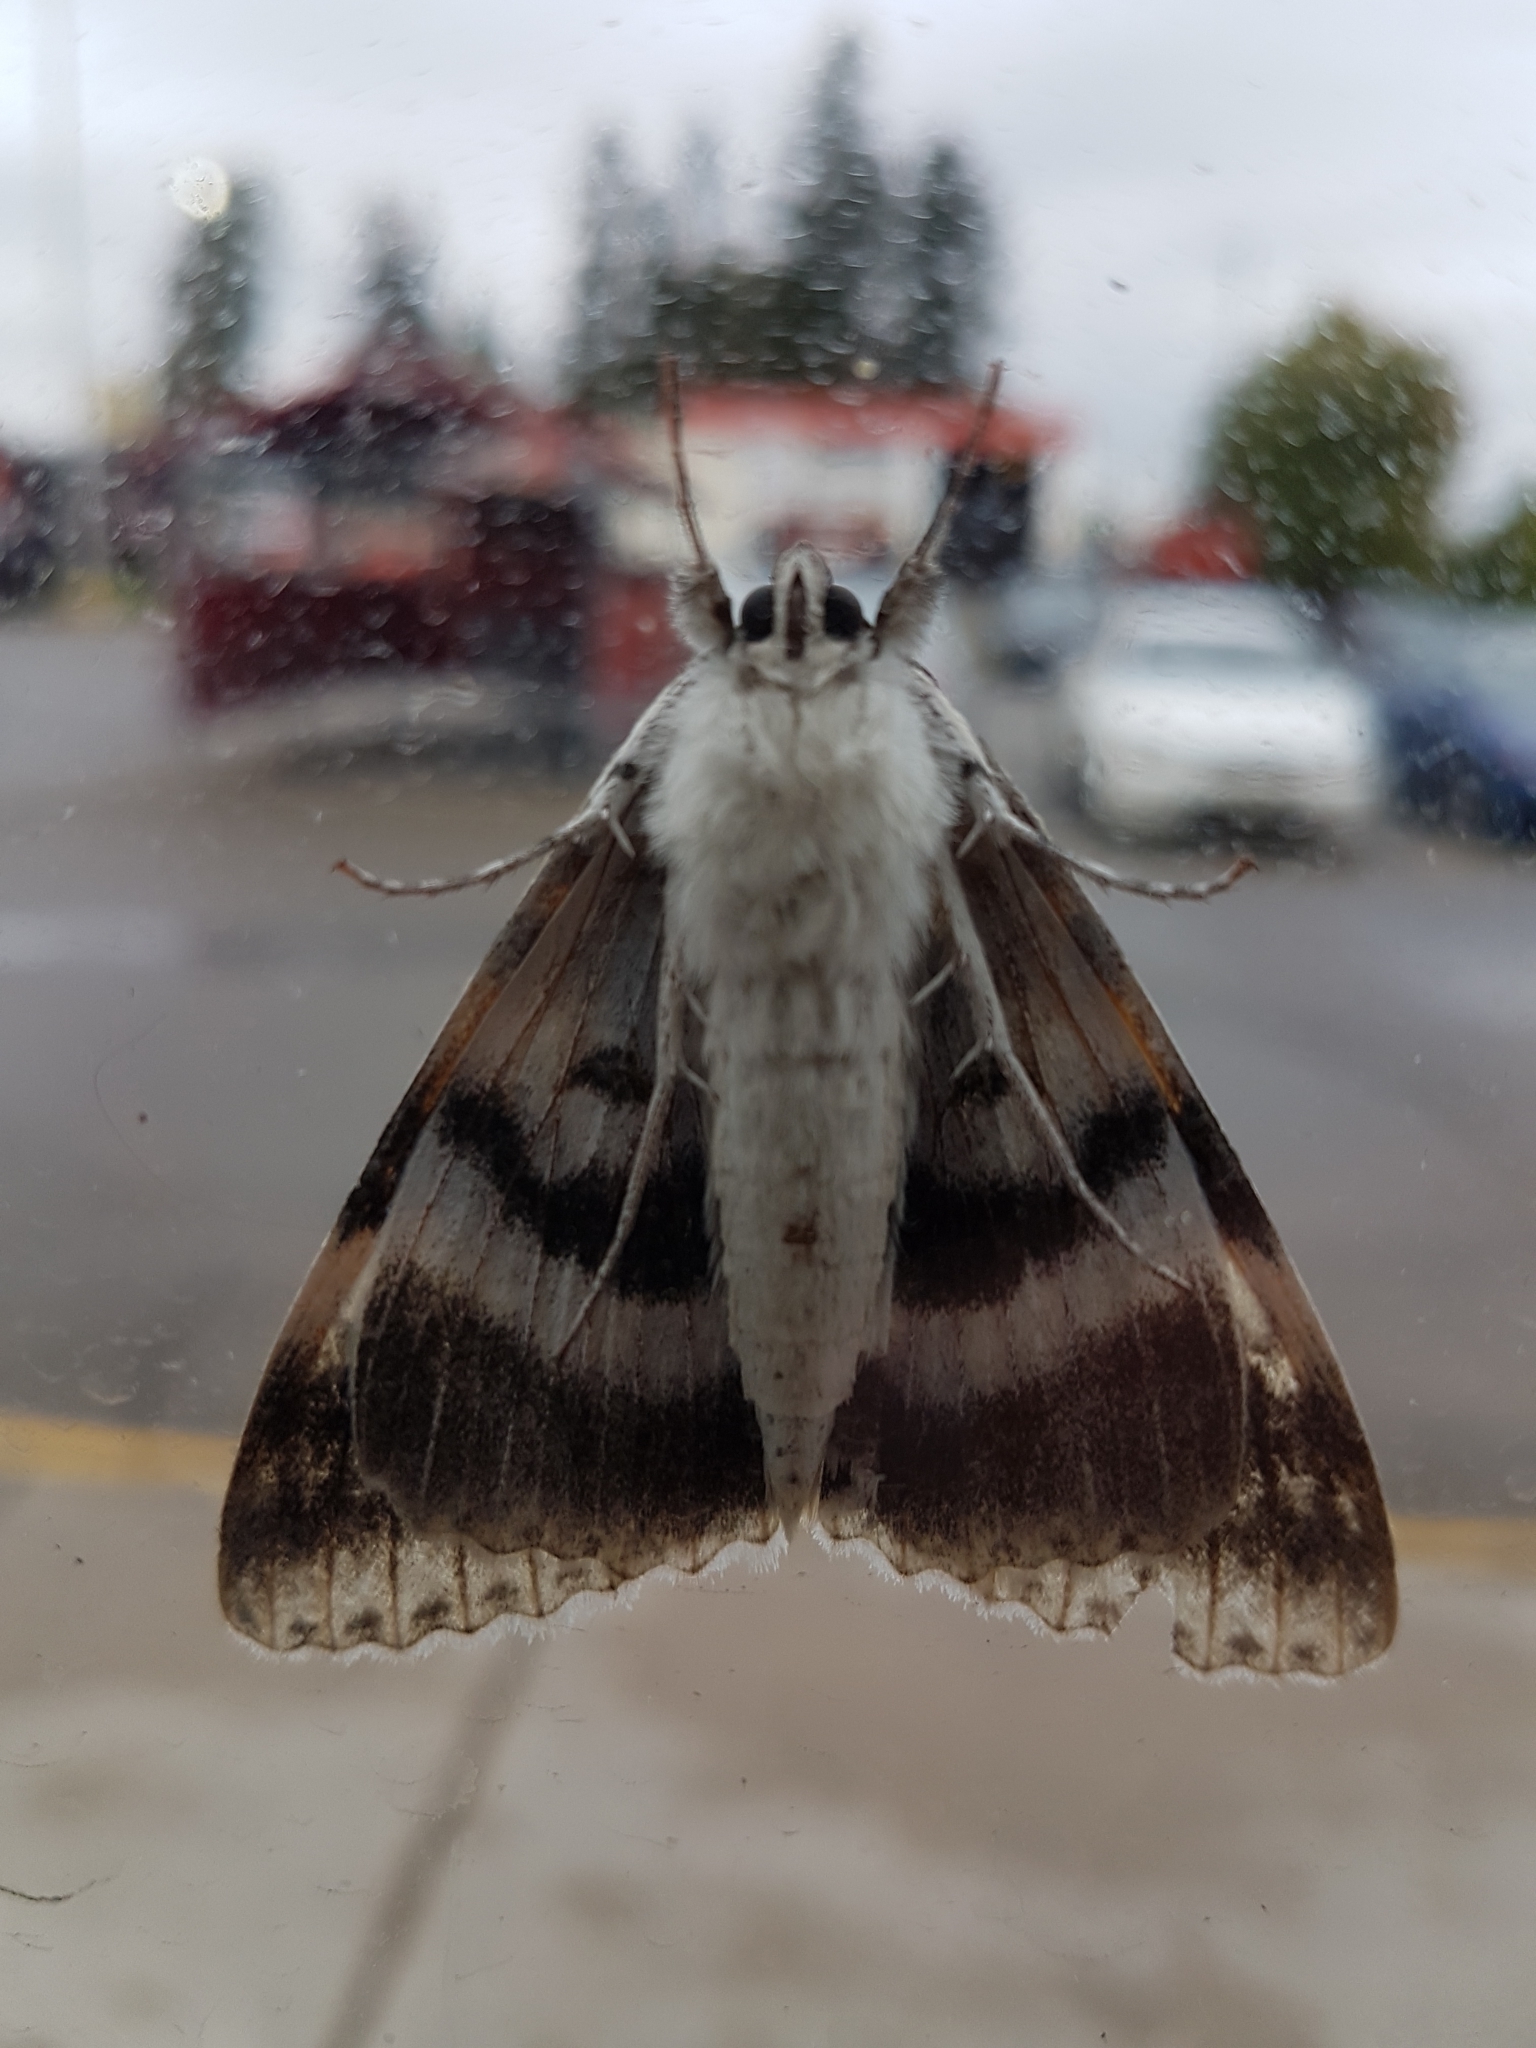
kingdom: Animalia
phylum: Arthropoda
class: Insecta
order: Lepidoptera
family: Erebidae
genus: Catocala
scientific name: Catocala relicta
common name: White underwing
